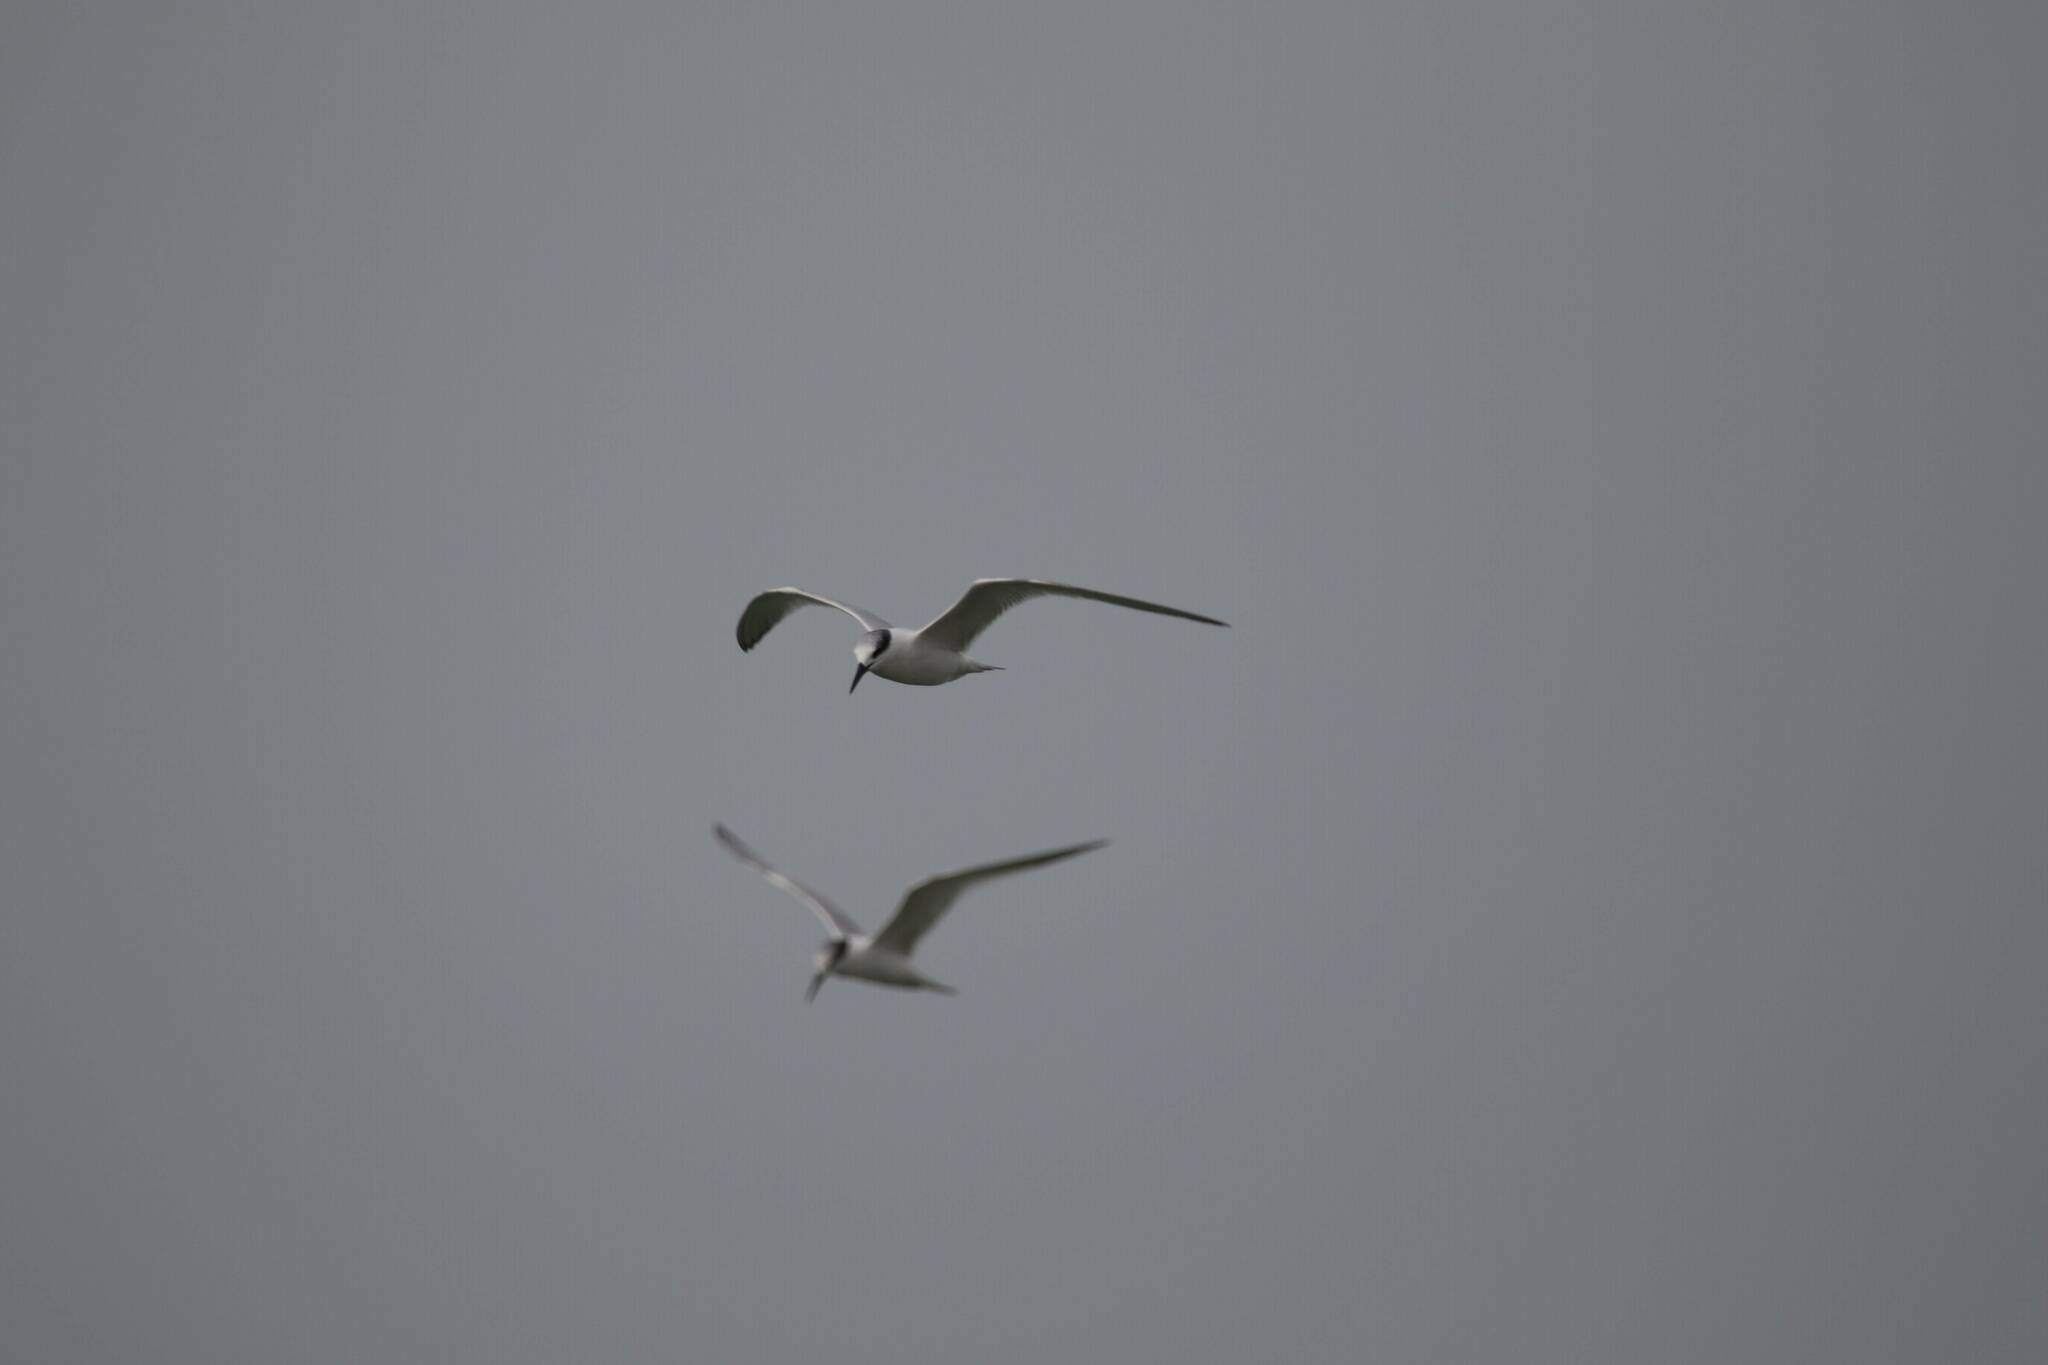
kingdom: Animalia
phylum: Chordata
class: Aves
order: Charadriiformes
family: Laridae
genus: Thalasseus
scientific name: Thalasseus sandvicensis
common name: Sandwich tern
